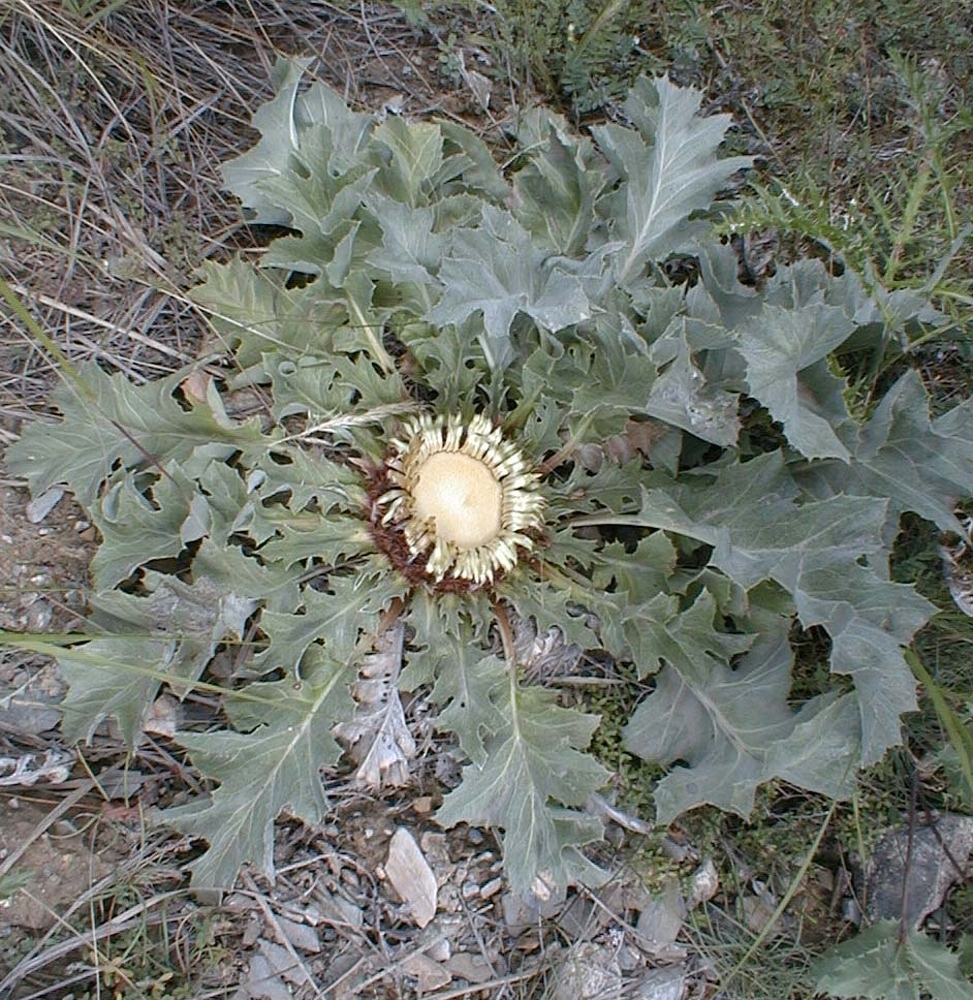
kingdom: Plantae
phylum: Tracheophyta
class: Magnoliopsida
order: Asterales
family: Asteraceae
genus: Carlina
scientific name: Carlina acanthifolia
